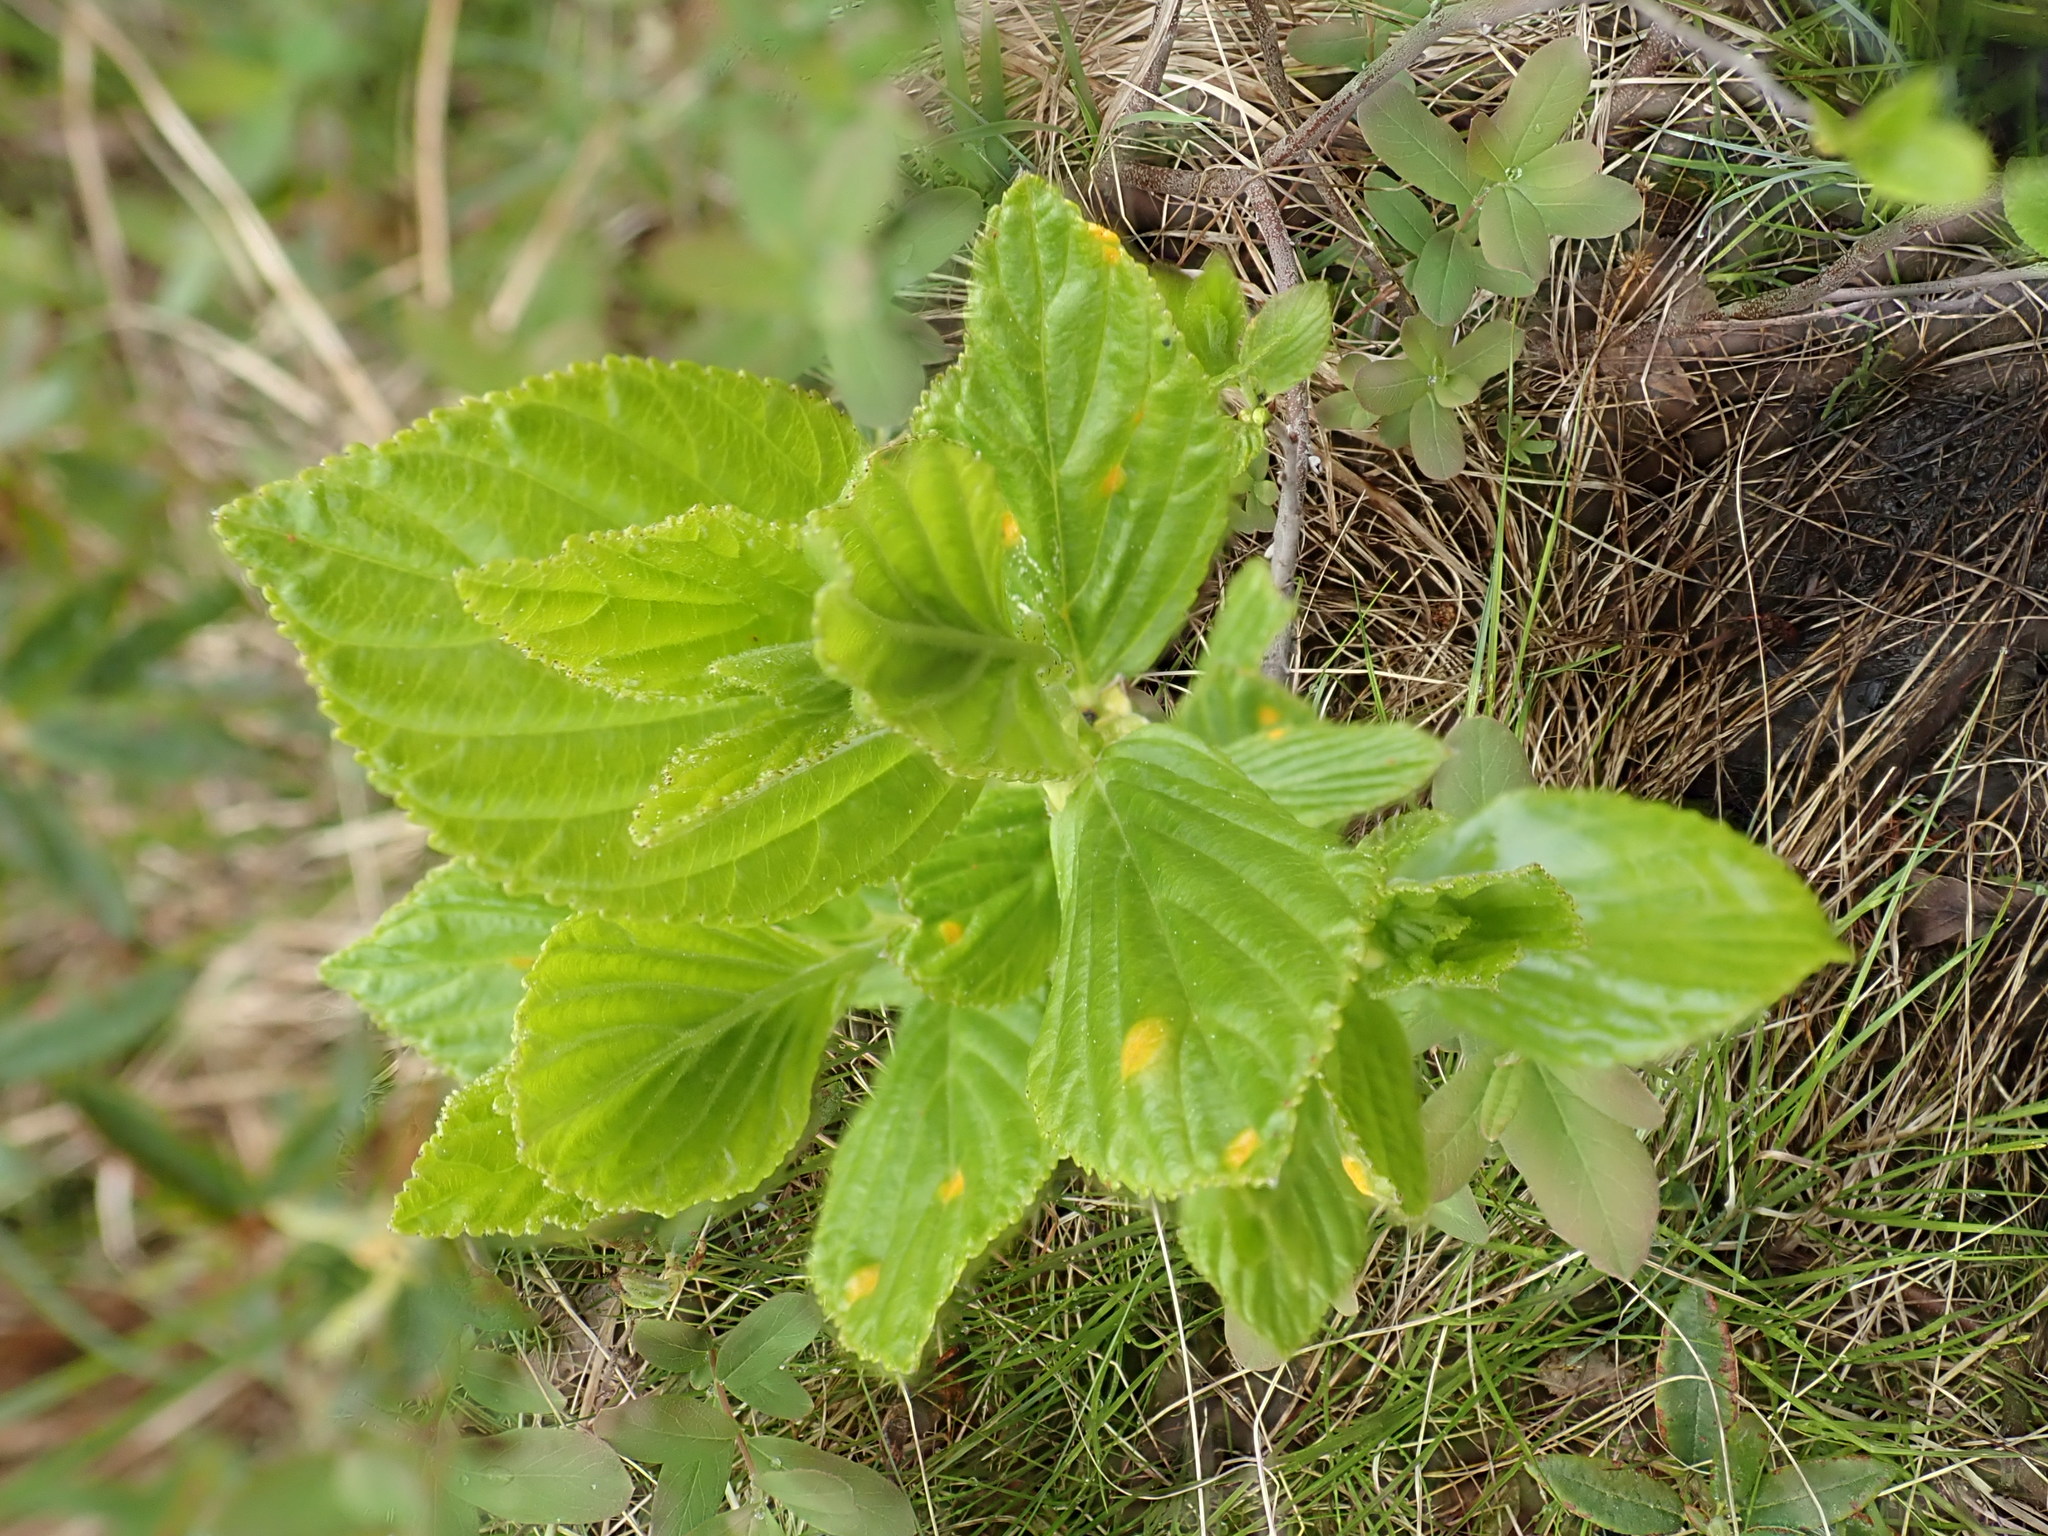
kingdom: Plantae
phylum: Tracheophyta
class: Magnoliopsida
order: Rosales
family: Rhamnaceae
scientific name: Rhamnaceae
